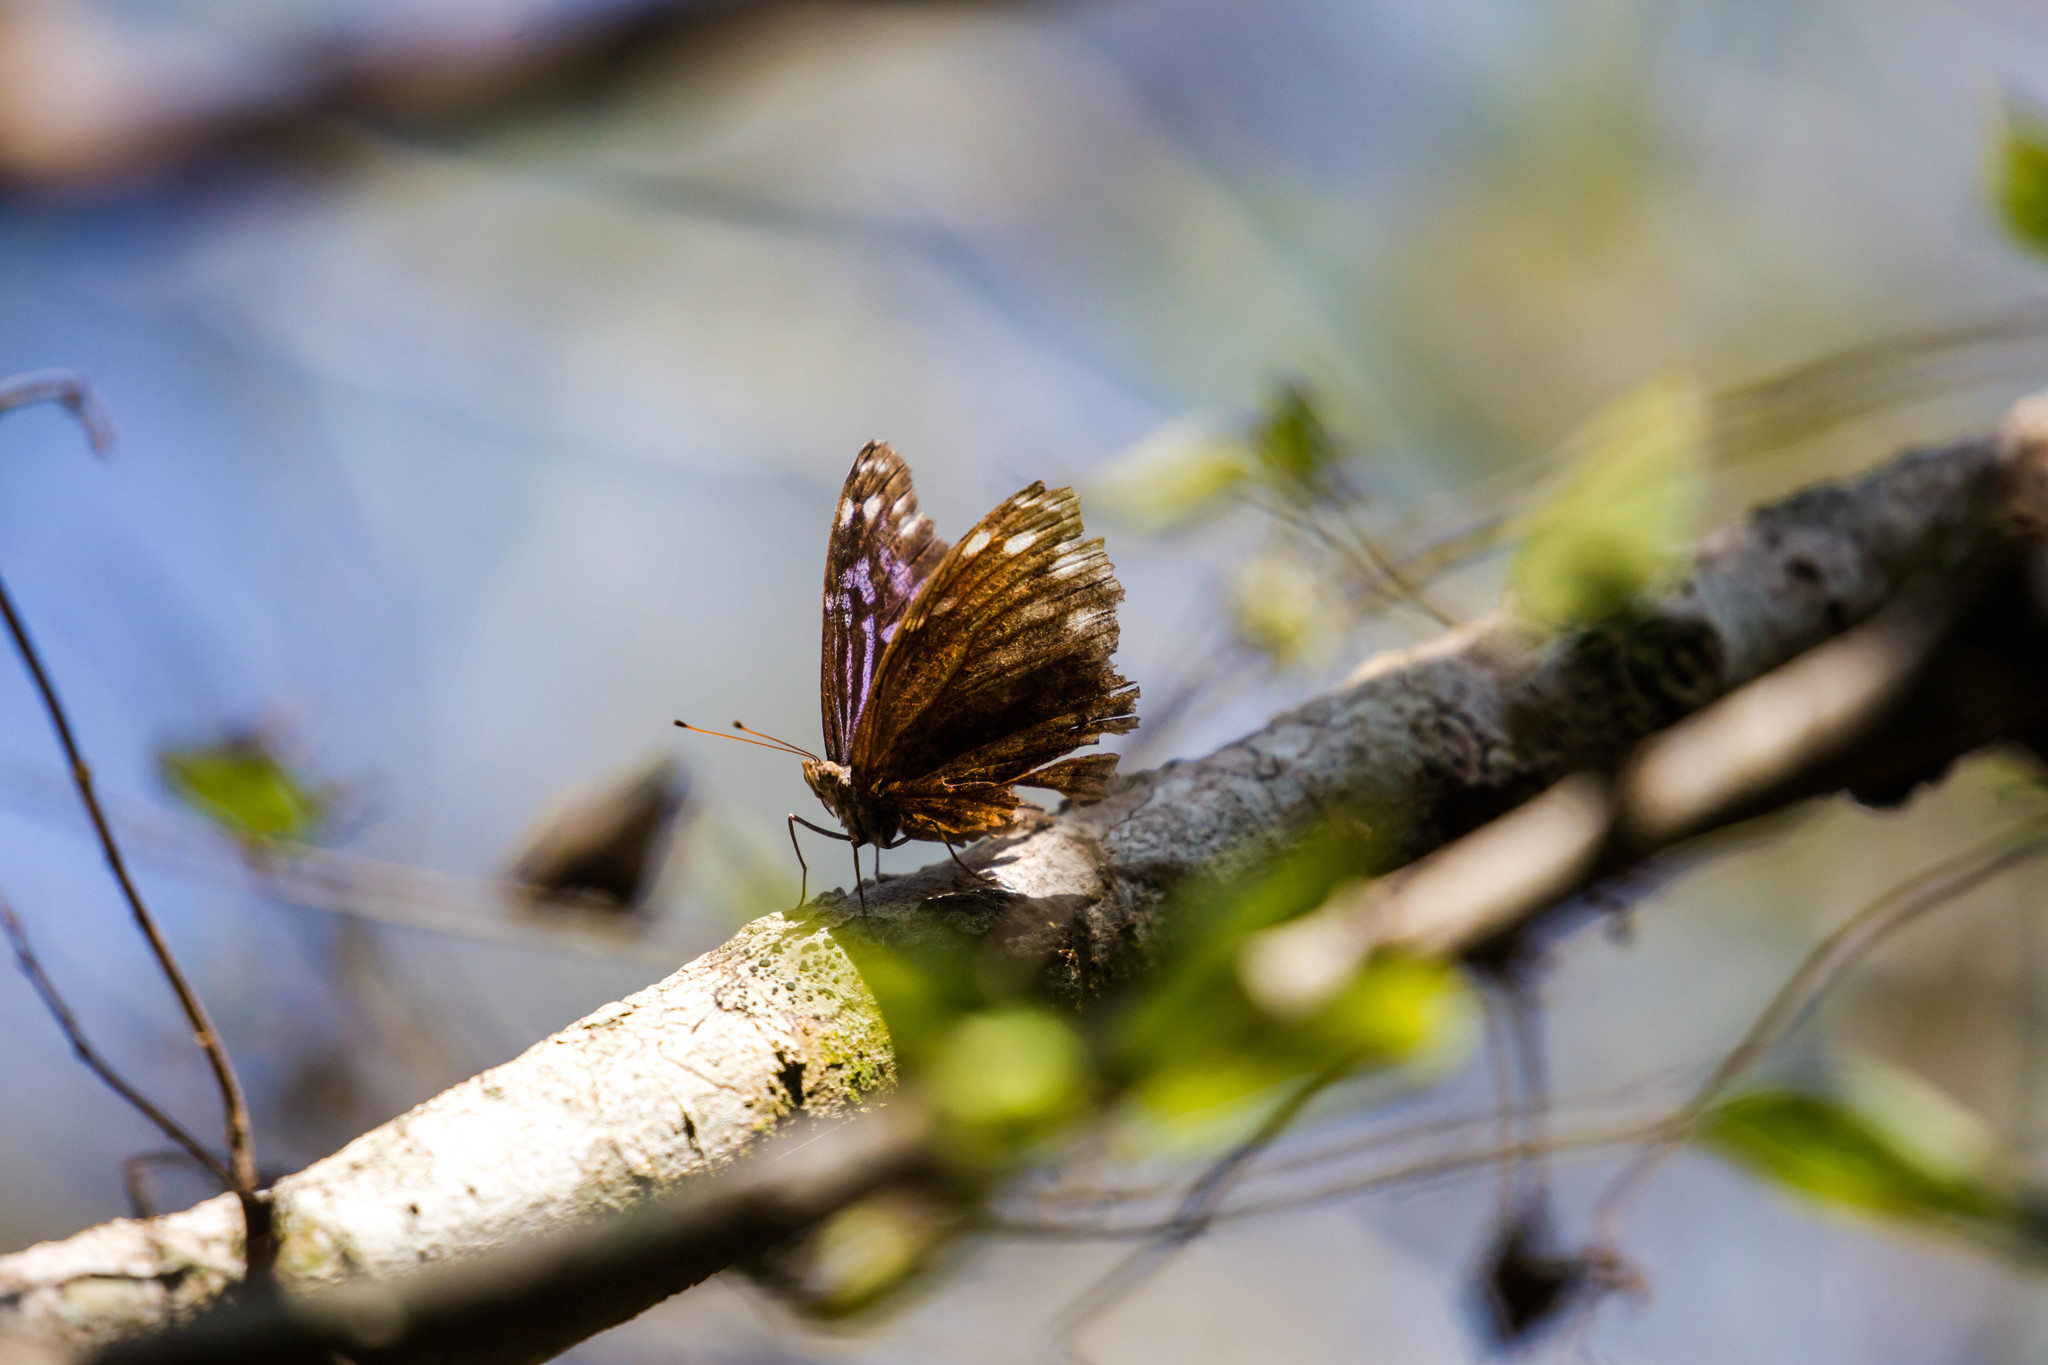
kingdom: Animalia
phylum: Arthropoda
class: Insecta
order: Lepidoptera
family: Nymphalidae
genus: Myscelia
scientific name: Myscelia ethusa
